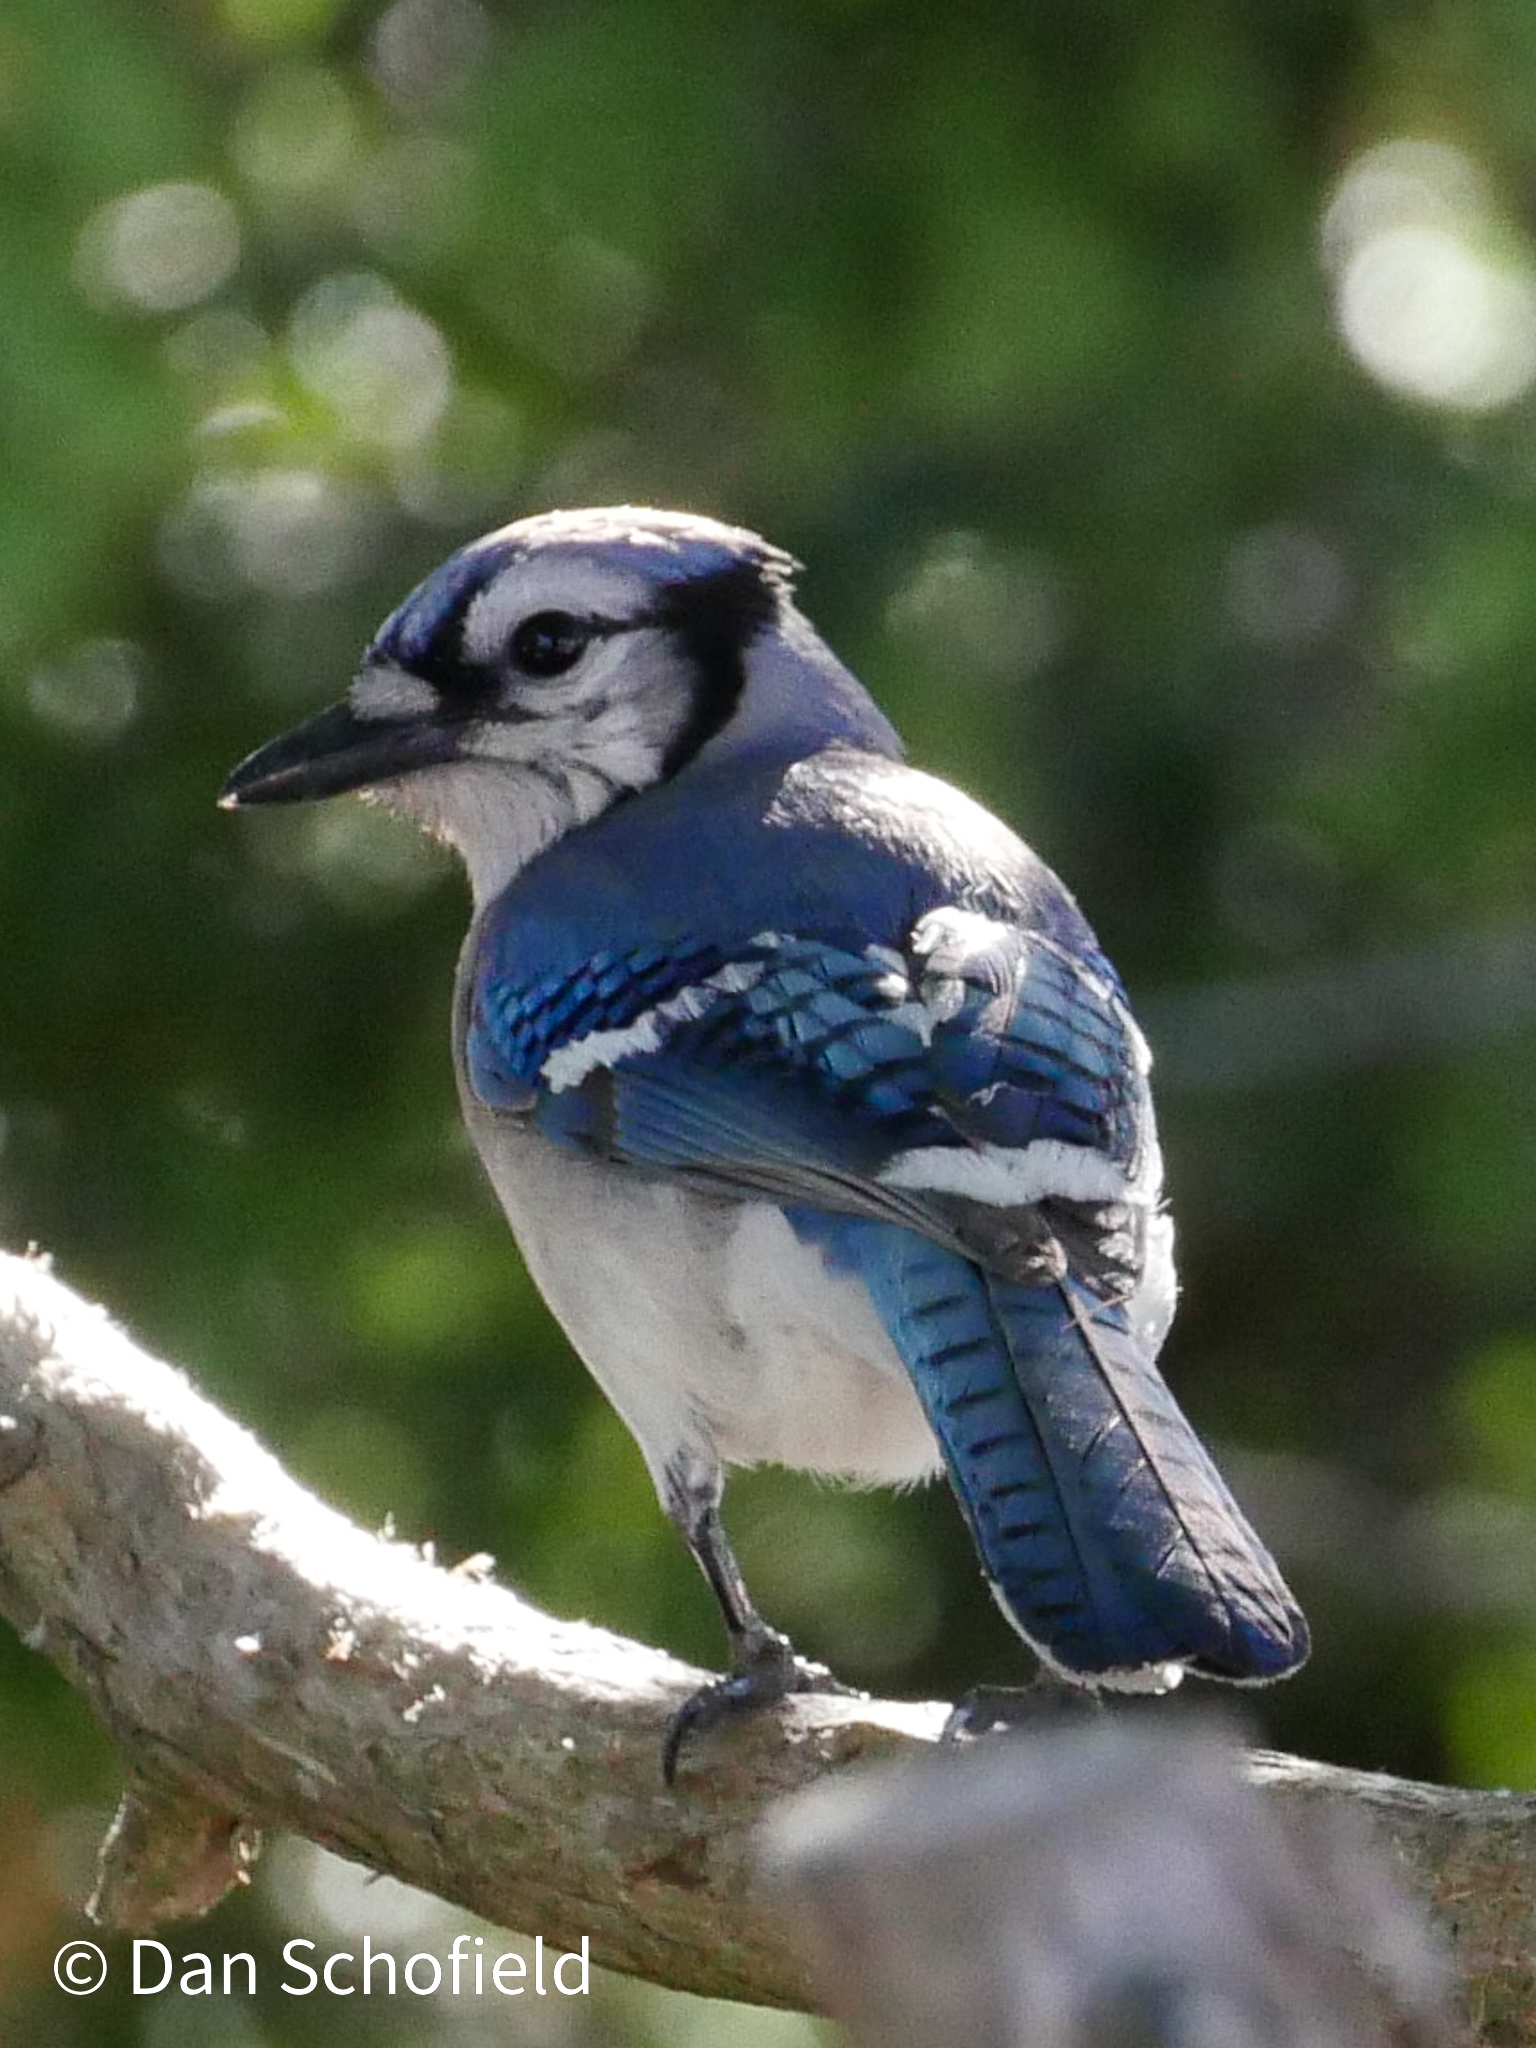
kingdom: Animalia
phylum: Chordata
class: Aves
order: Passeriformes
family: Corvidae
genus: Cyanocitta
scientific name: Cyanocitta cristata
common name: Blue jay
